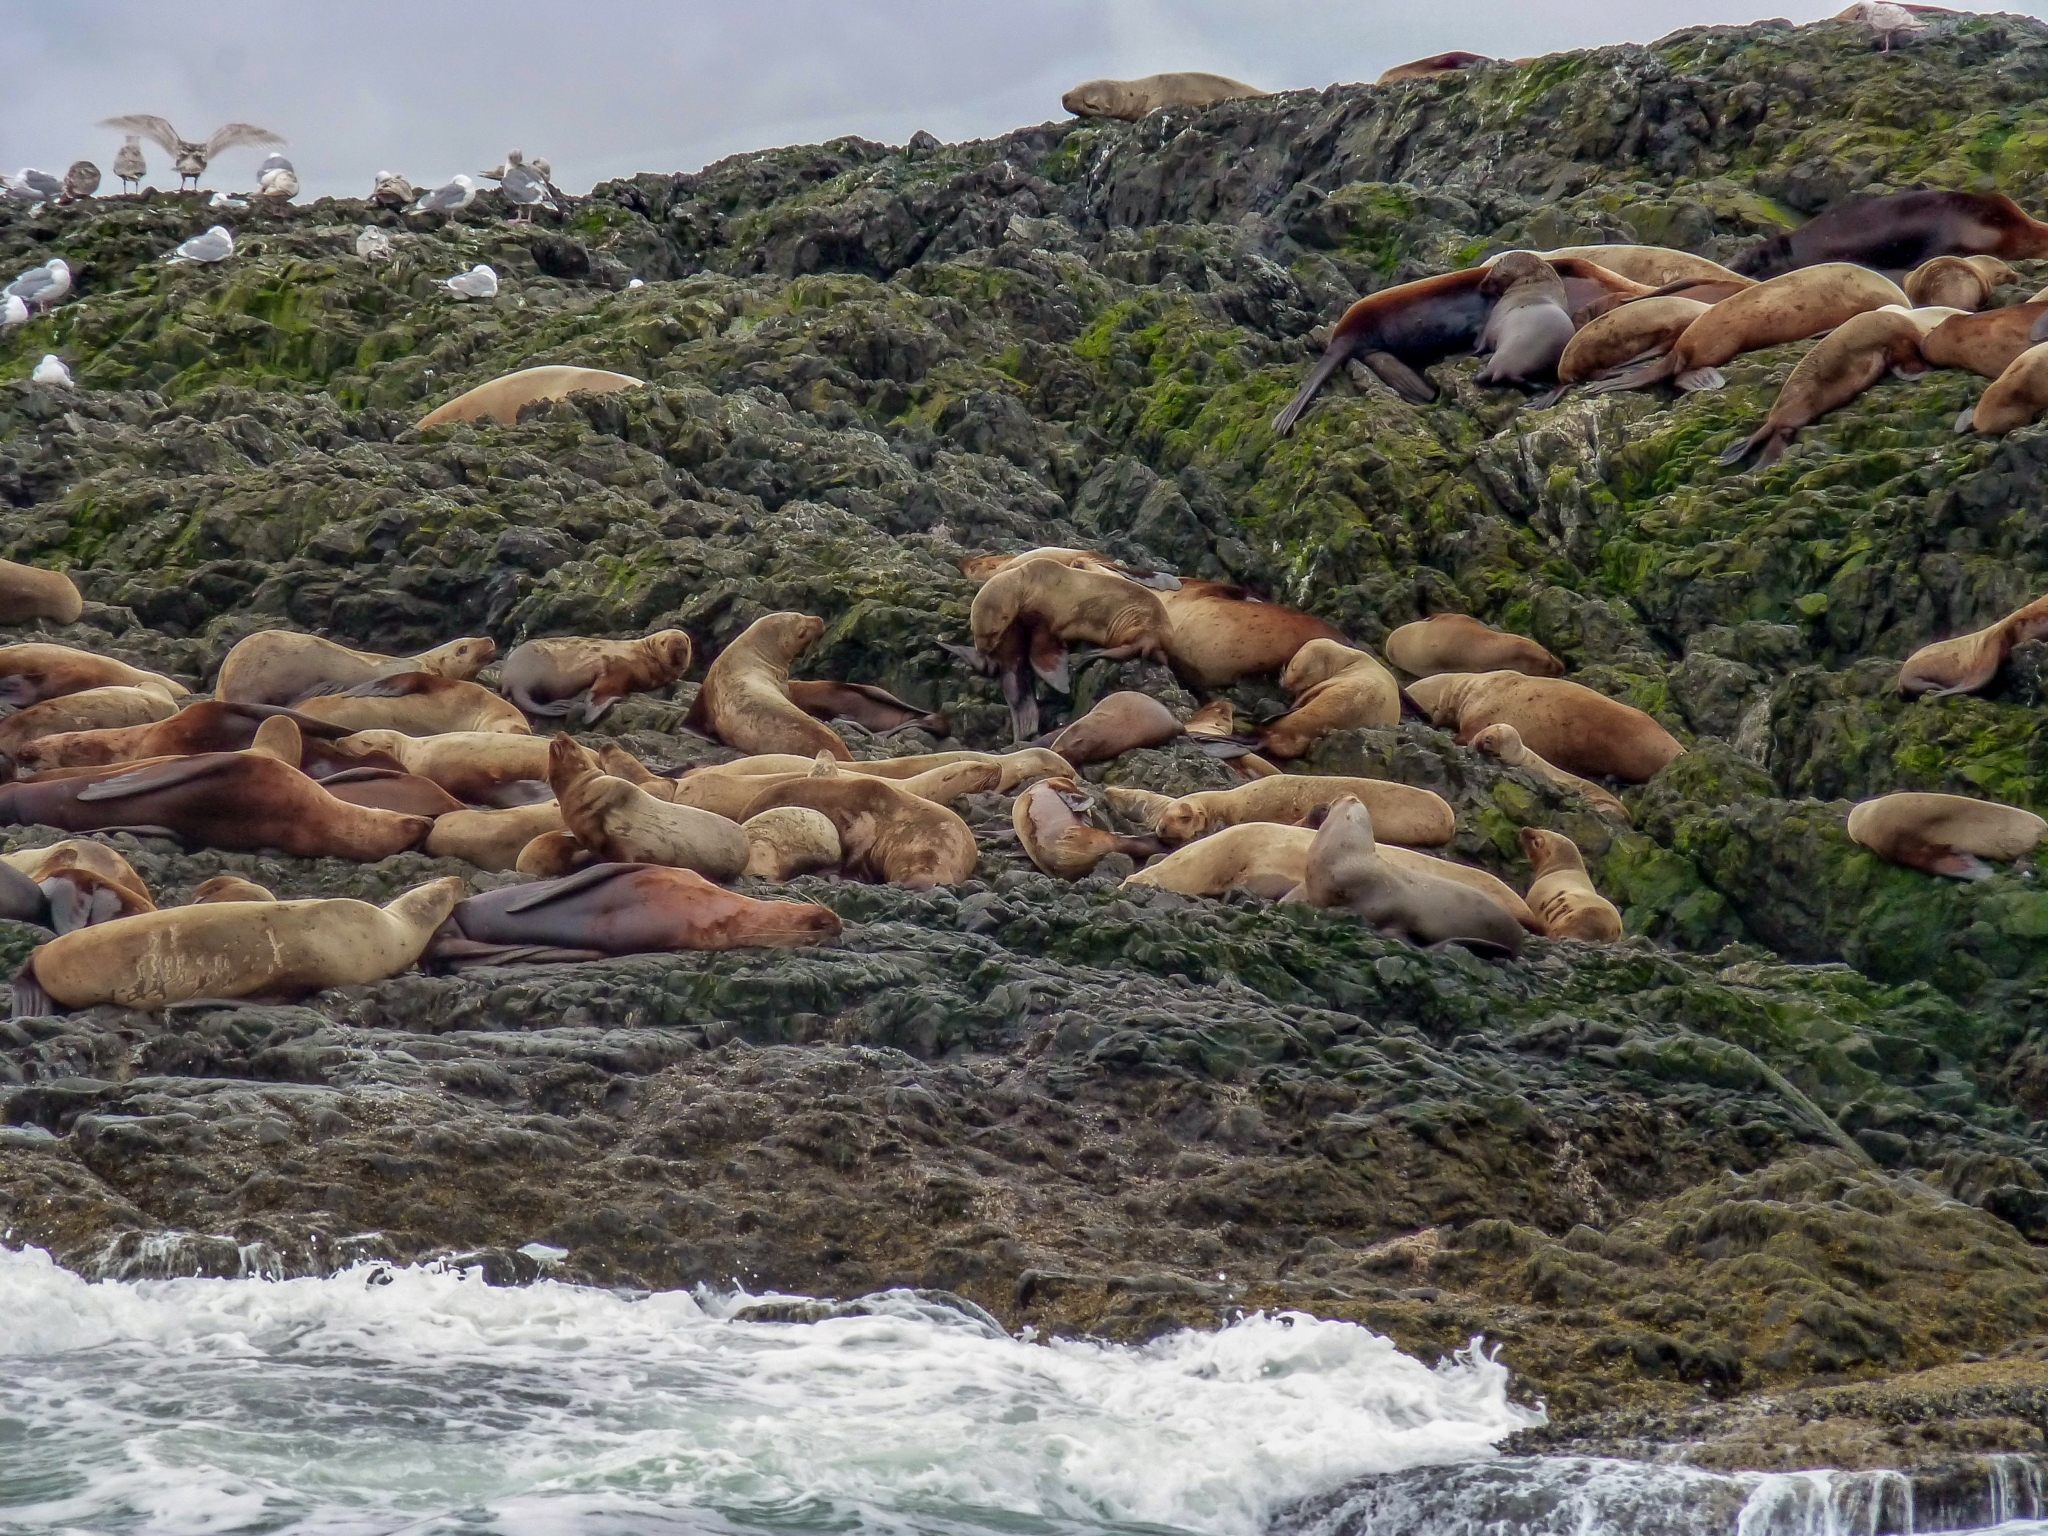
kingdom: Animalia
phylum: Chordata
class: Mammalia
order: Carnivora
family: Otariidae
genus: Eumetopias
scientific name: Eumetopias jubatus
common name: Steller sea lion
